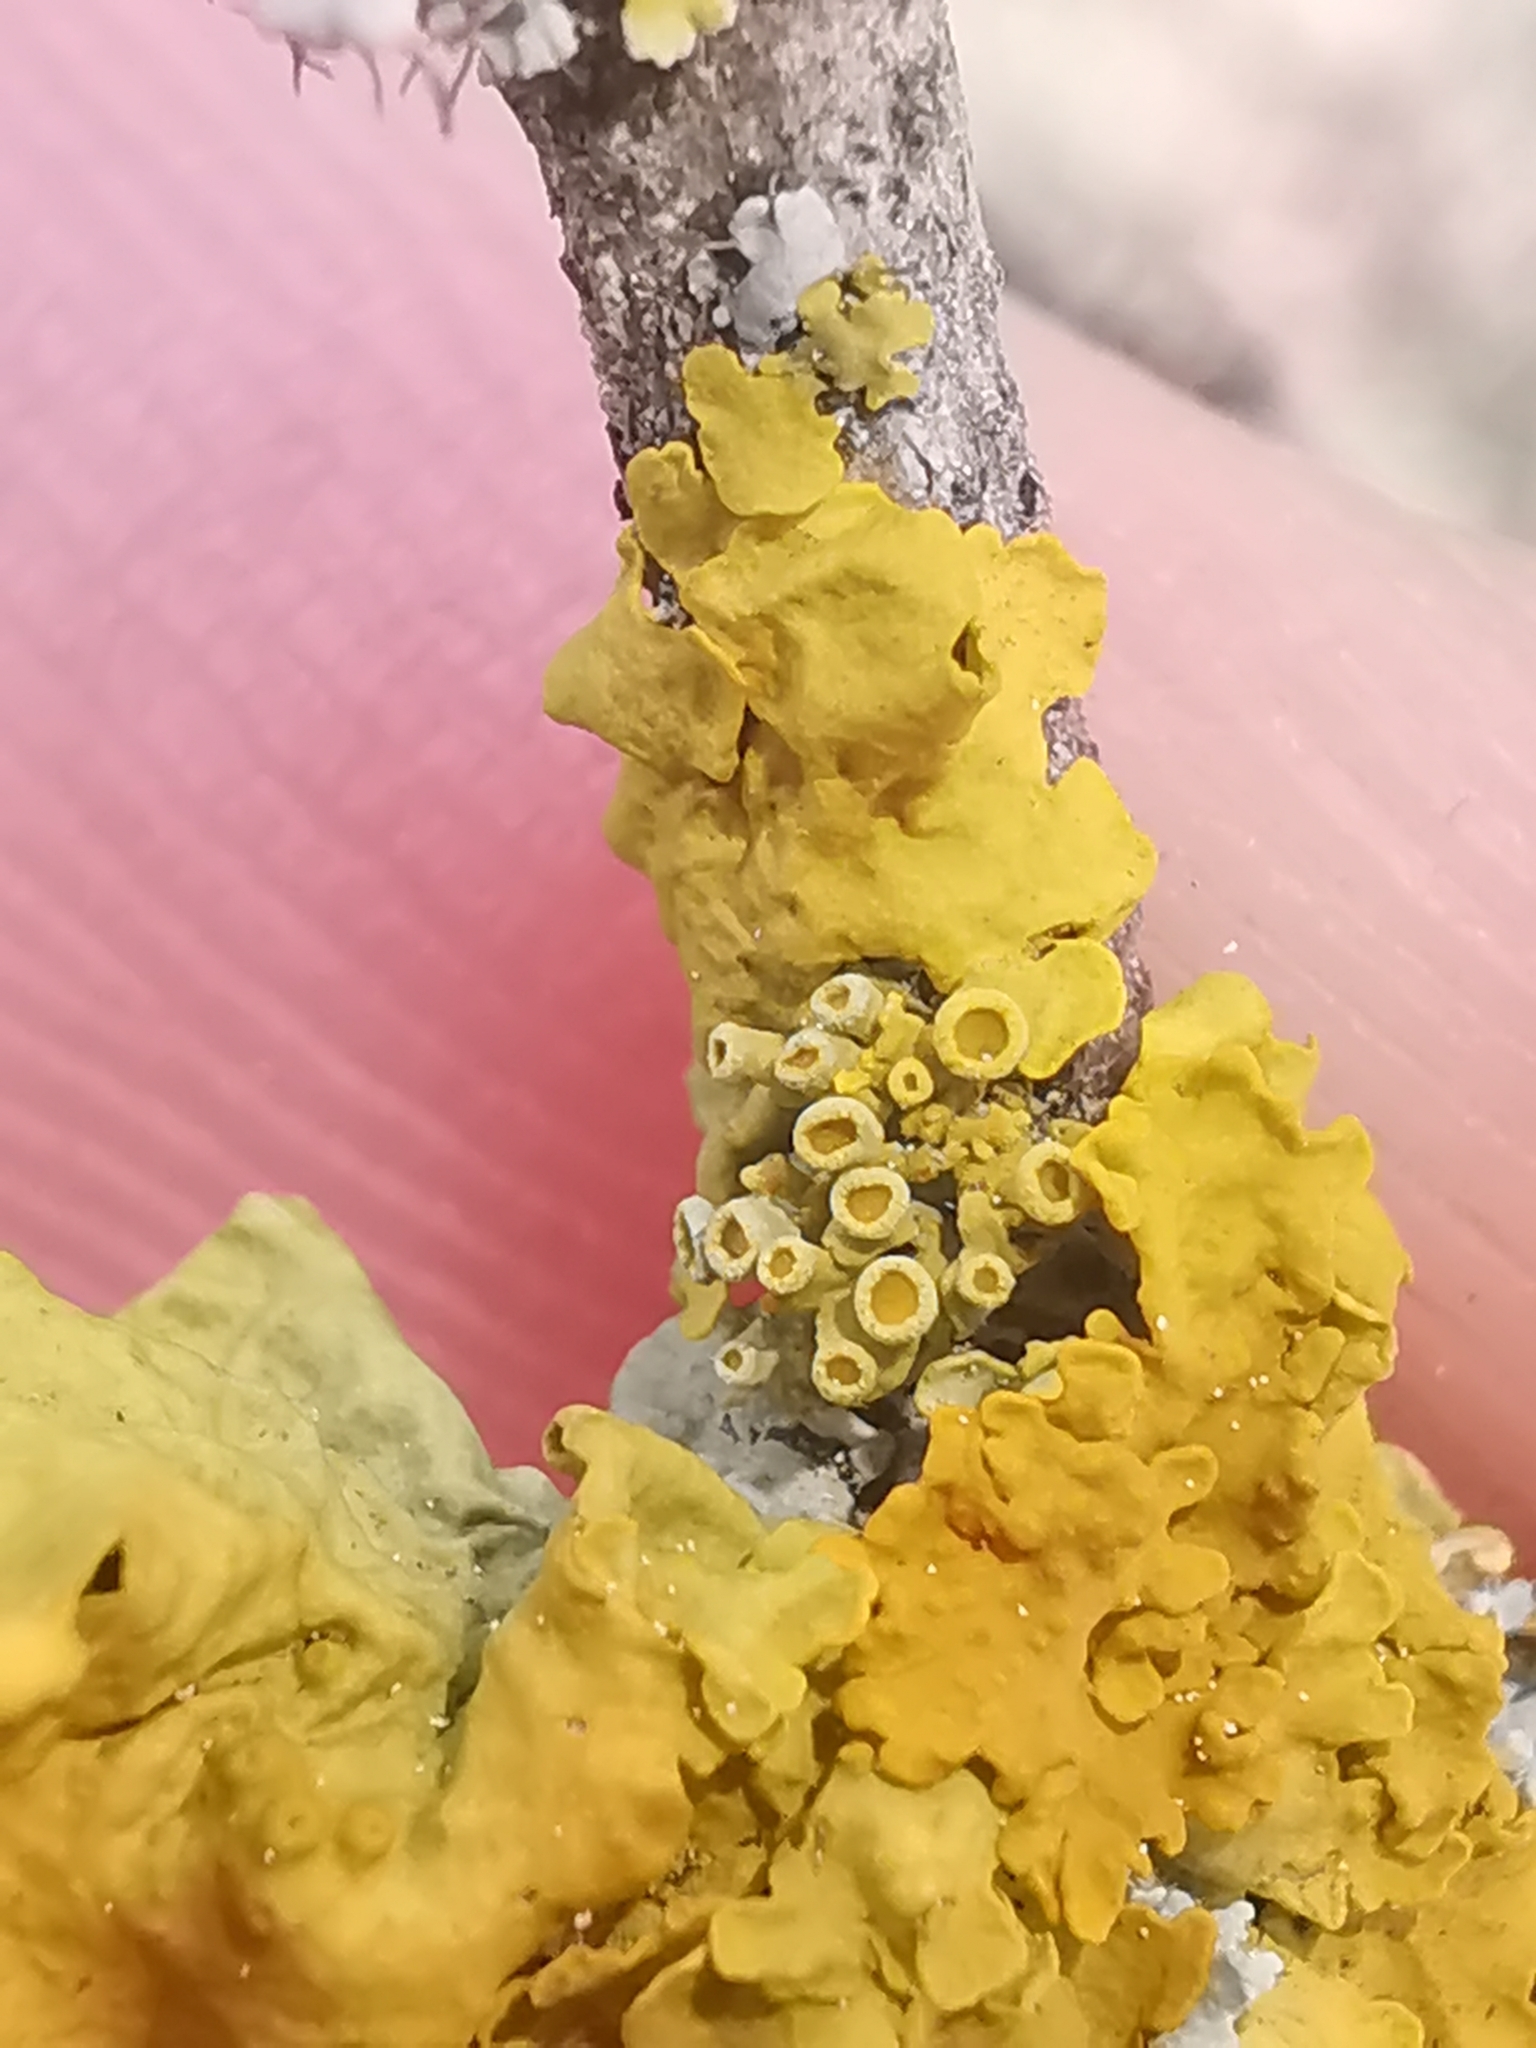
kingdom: Fungi
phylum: Ascomycota
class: Lecanoromycetes
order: Teloschistales
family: Teloschistaceae
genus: Polycauliona
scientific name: Polycauliona polycarpa
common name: Pin-cushion sunburst lichen
